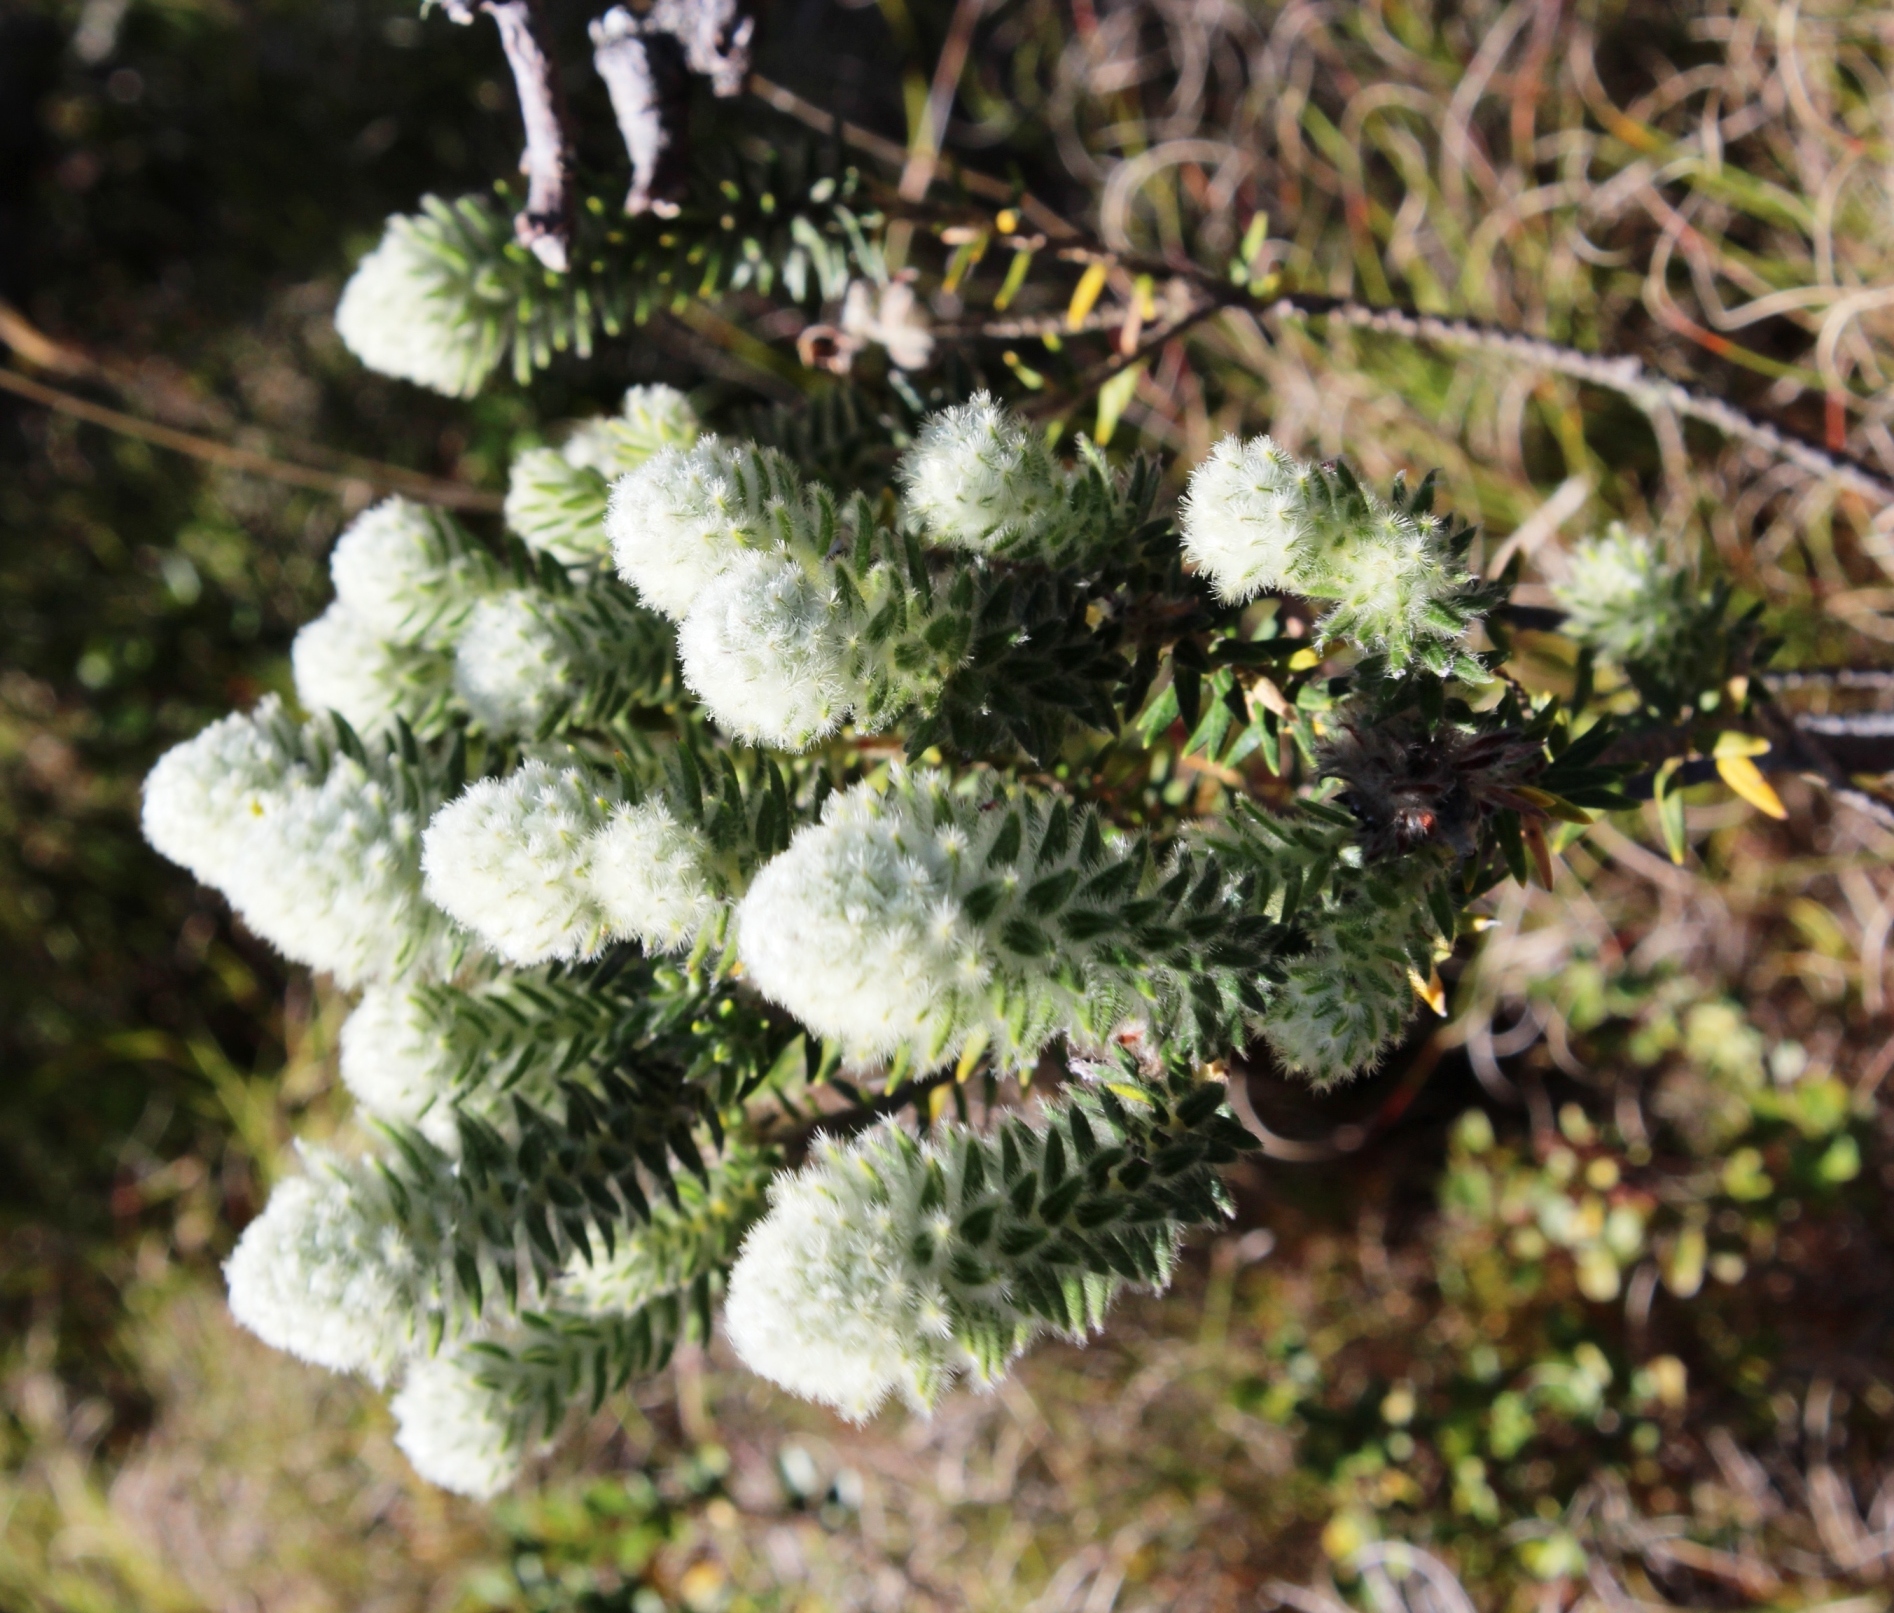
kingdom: Plantae
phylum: Tracheophyta
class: Magnoliopsida
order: Rosales
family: Rhamnaceae
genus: Phylica
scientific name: Phylica strigosa
